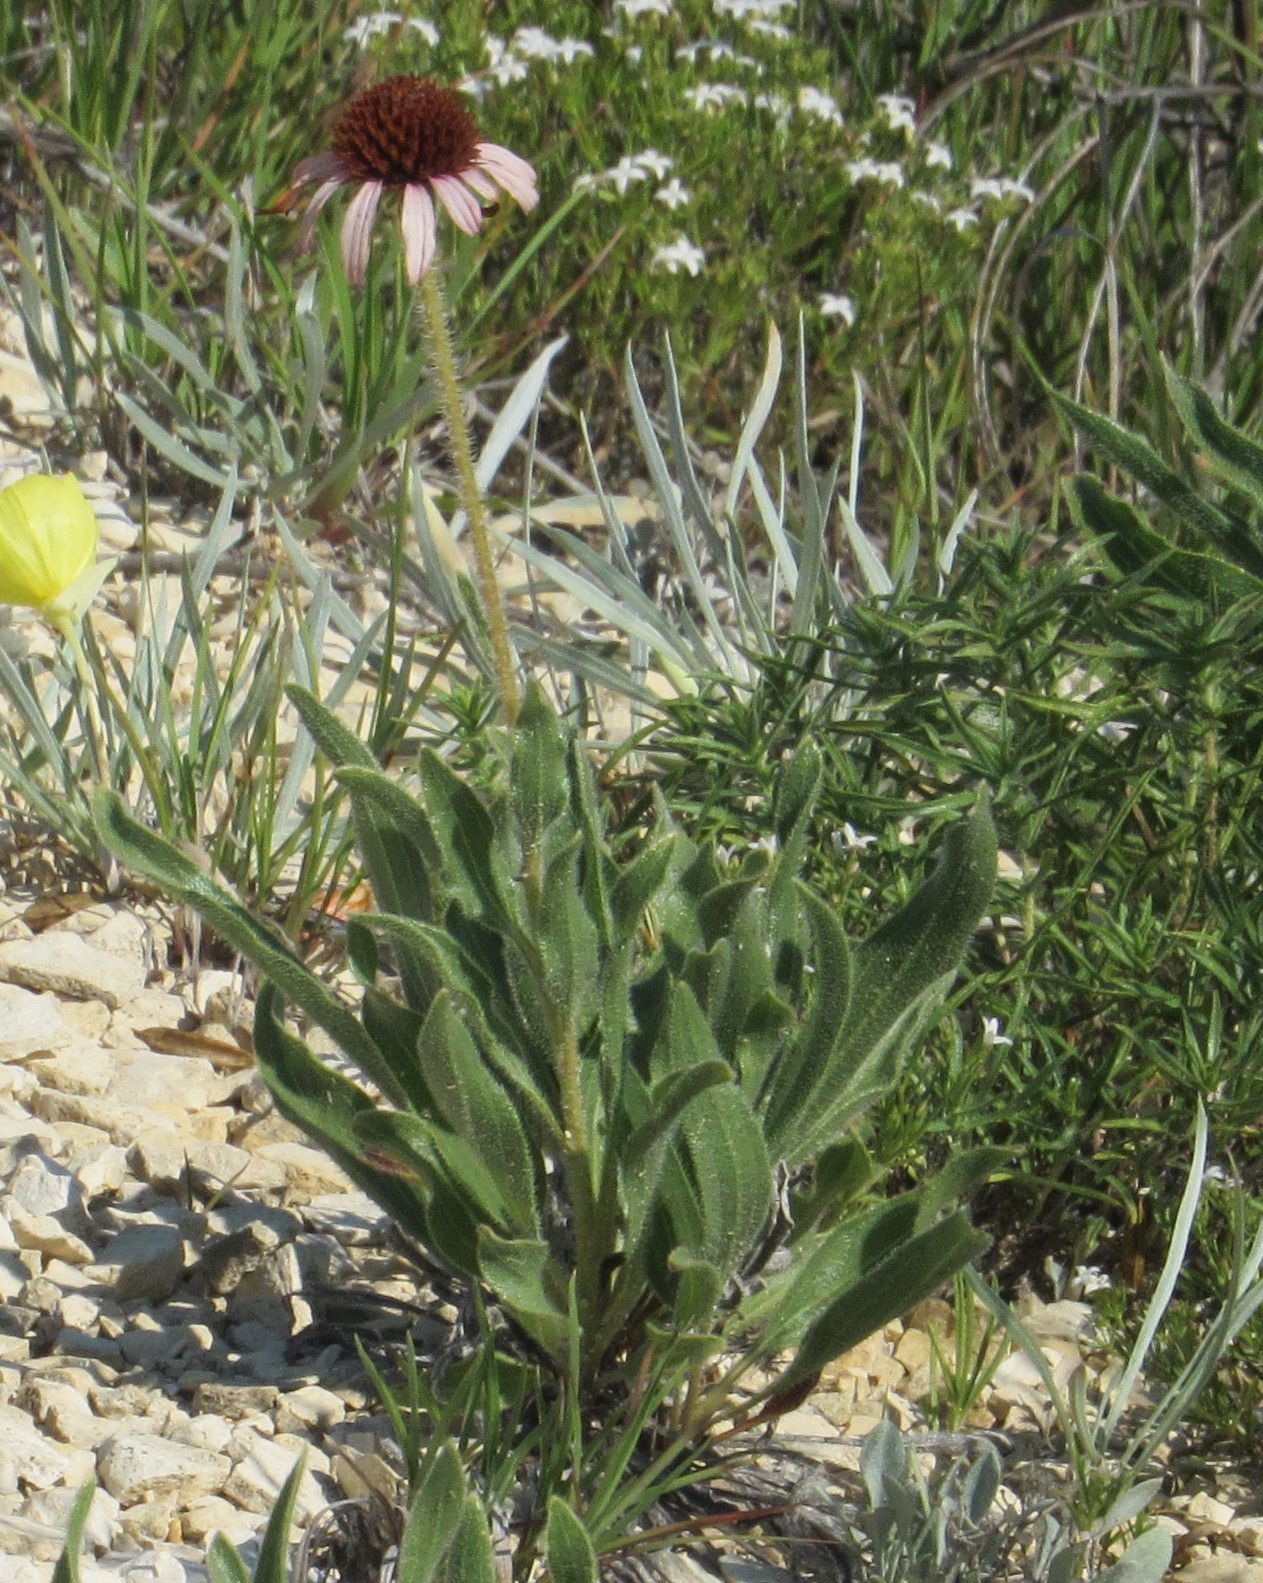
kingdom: Plantae
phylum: Tracheophyta
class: Magnoliopsida
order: Asterales
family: Asteraceae
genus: Echinacea
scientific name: Echinacea angustifolia
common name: Black-sampson echinacea
